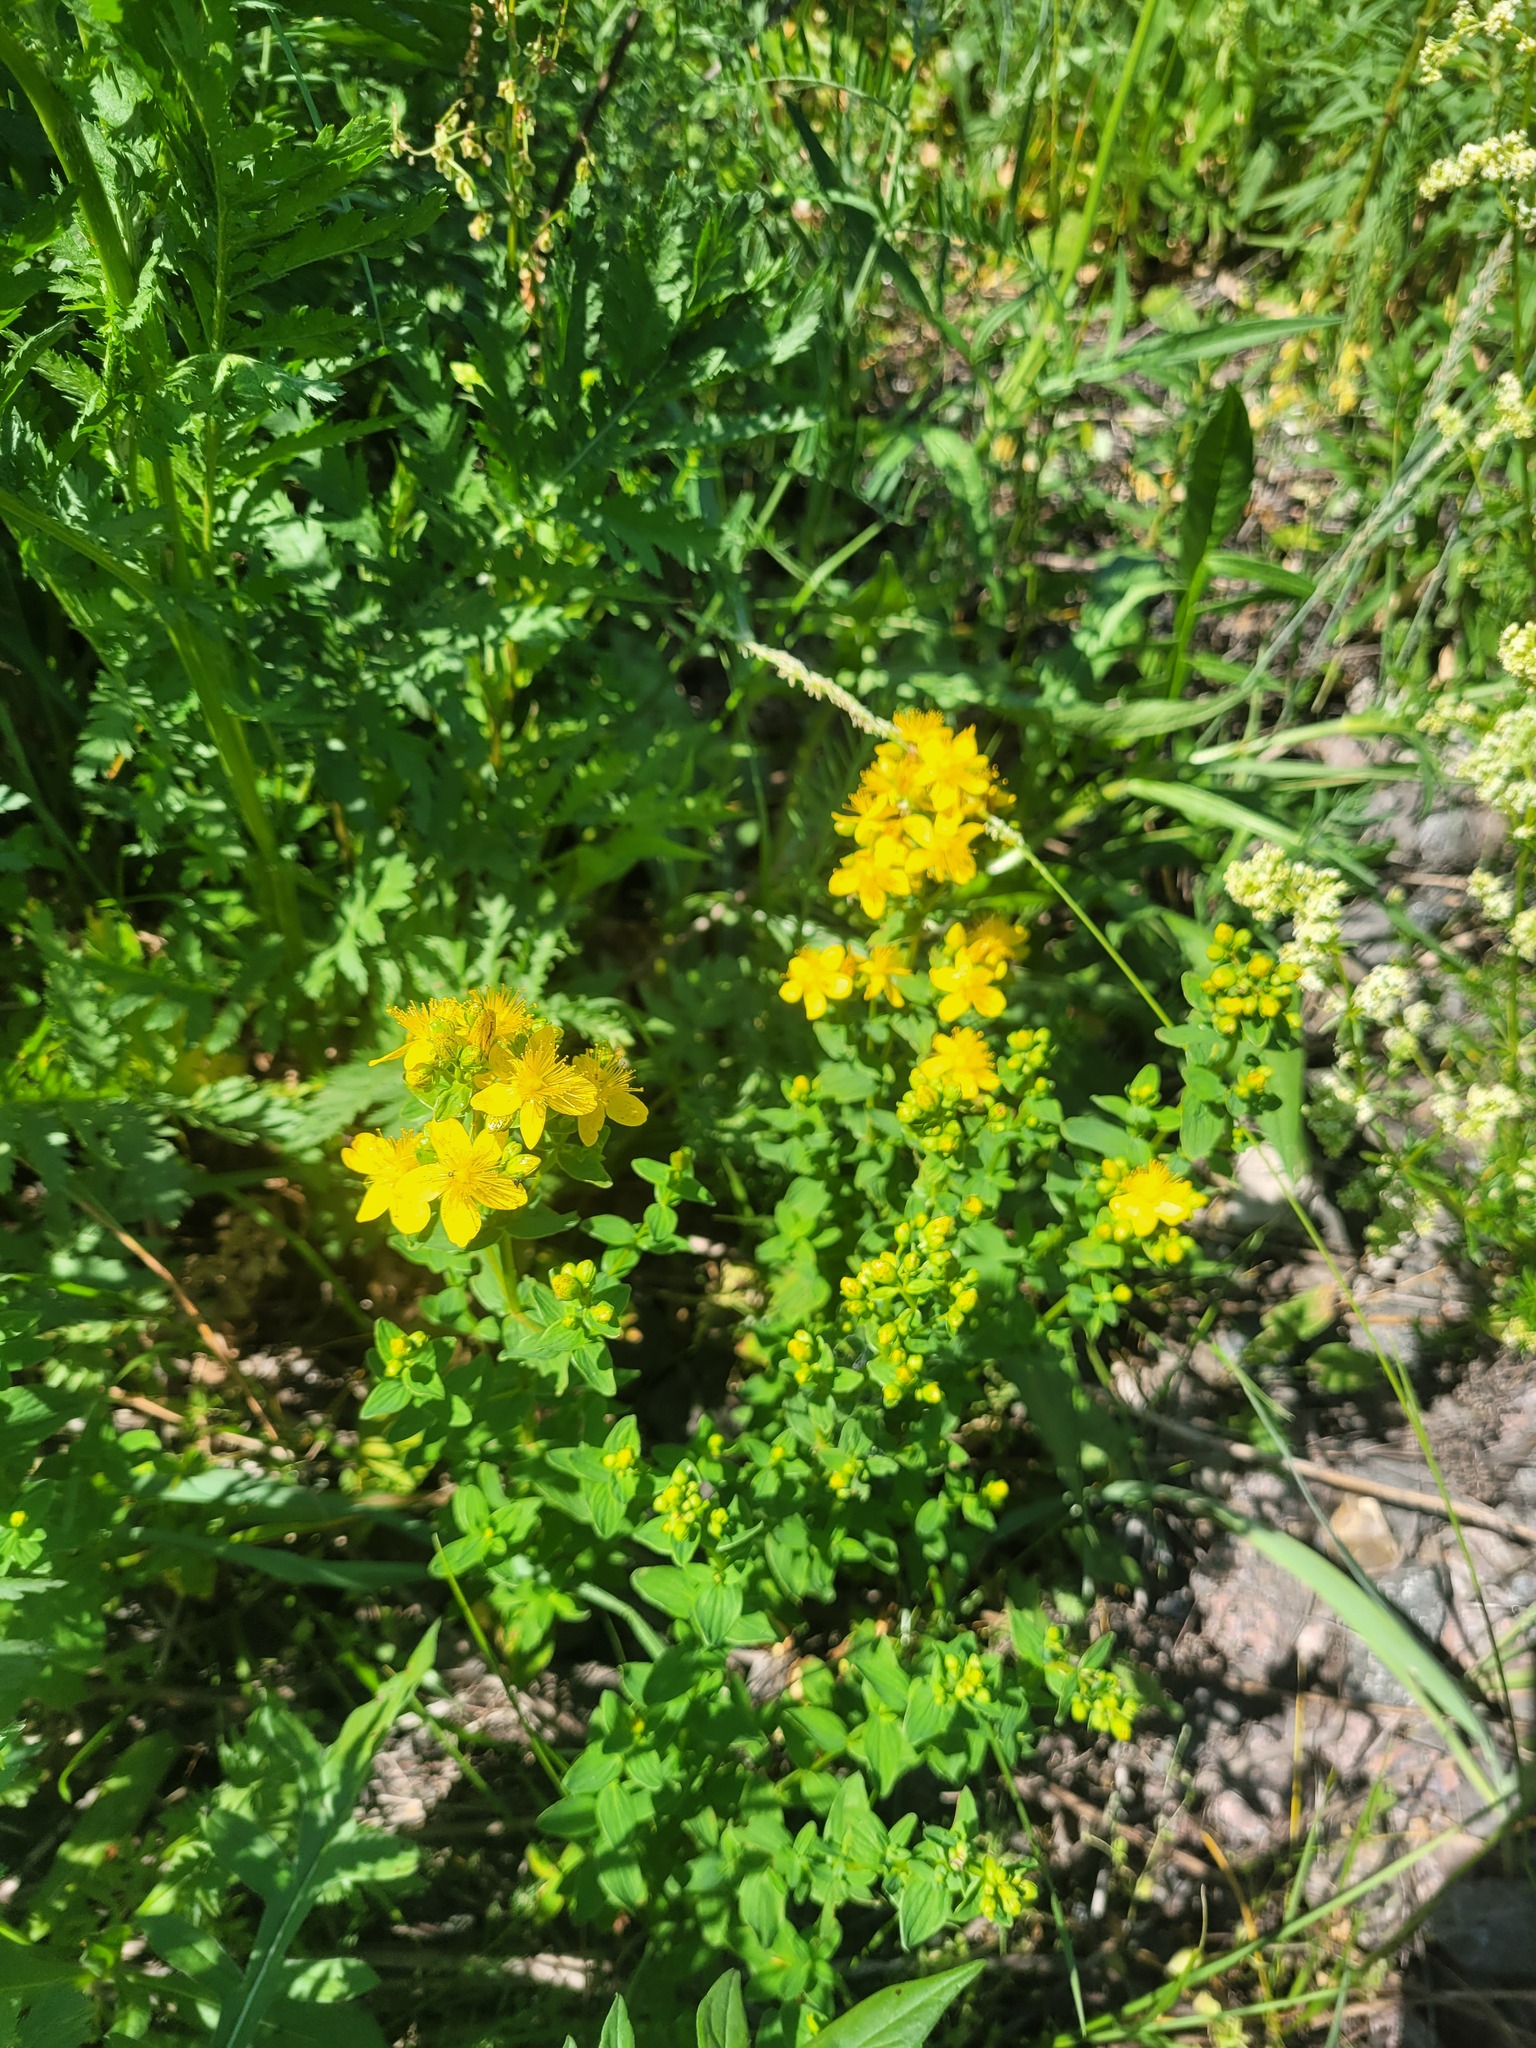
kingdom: Plantae
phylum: Tracheophyta
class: Magnoliopsida
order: Malpighiales
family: Hypericaceae
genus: Hypericum
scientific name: Hypericum maculatum
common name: Imperforate st. john's-wort
